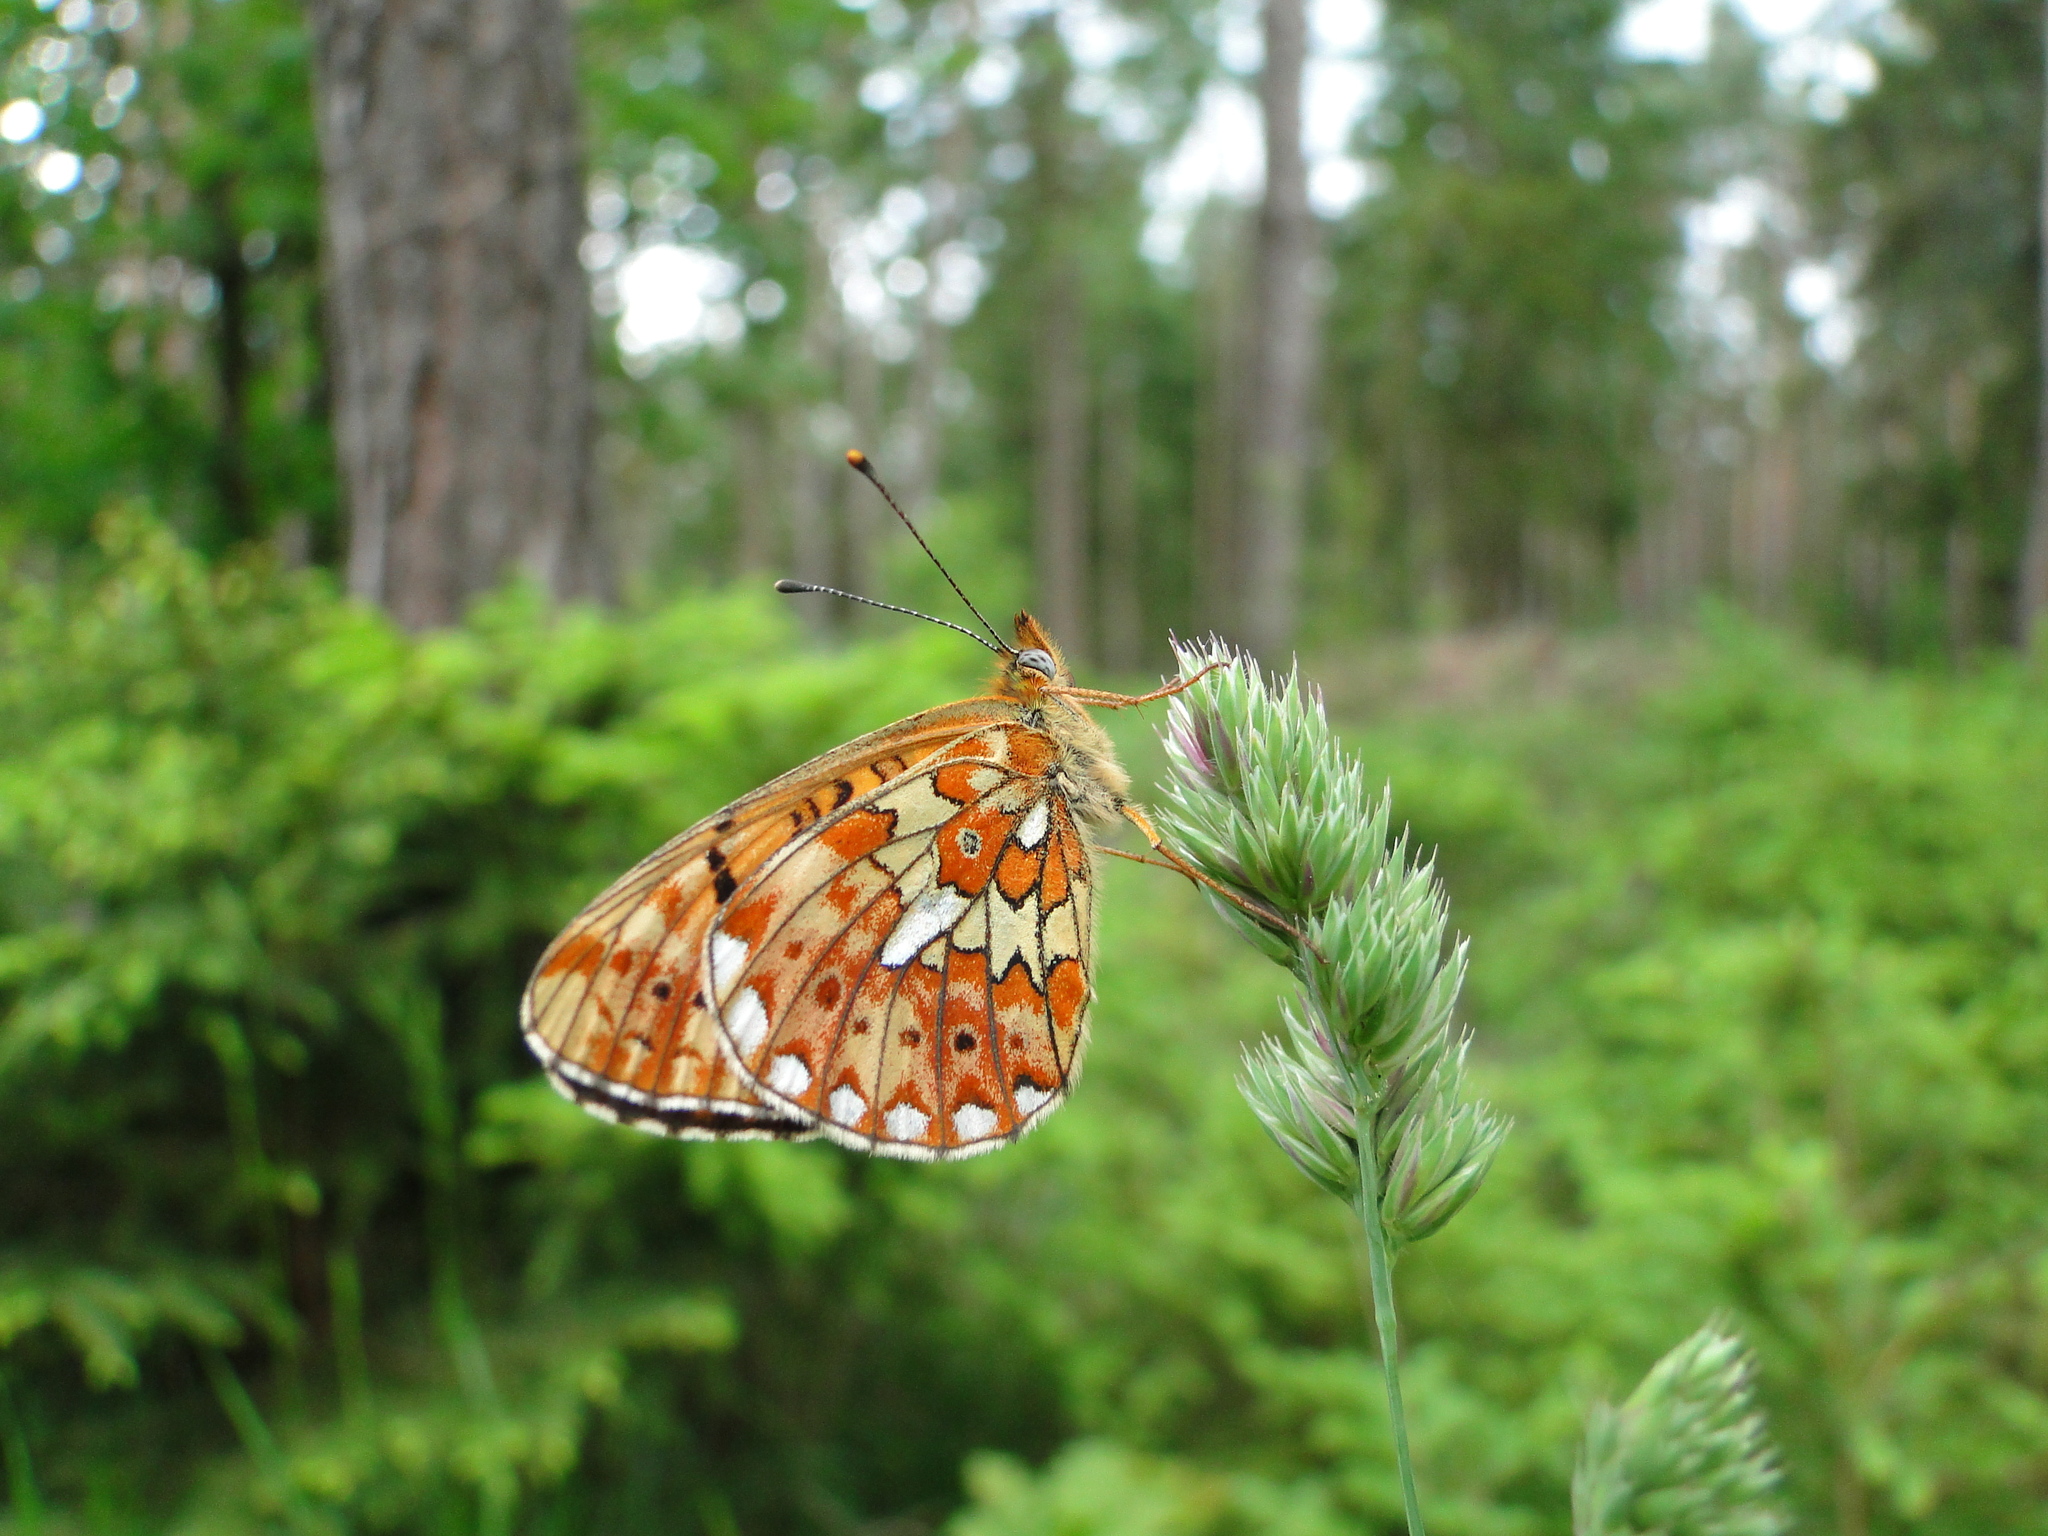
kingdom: Animalia
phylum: Arthropoda
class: Insecta
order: Lepidoptera
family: Nymphalidae
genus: Clossiana
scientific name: Clossiana euphrosyne
